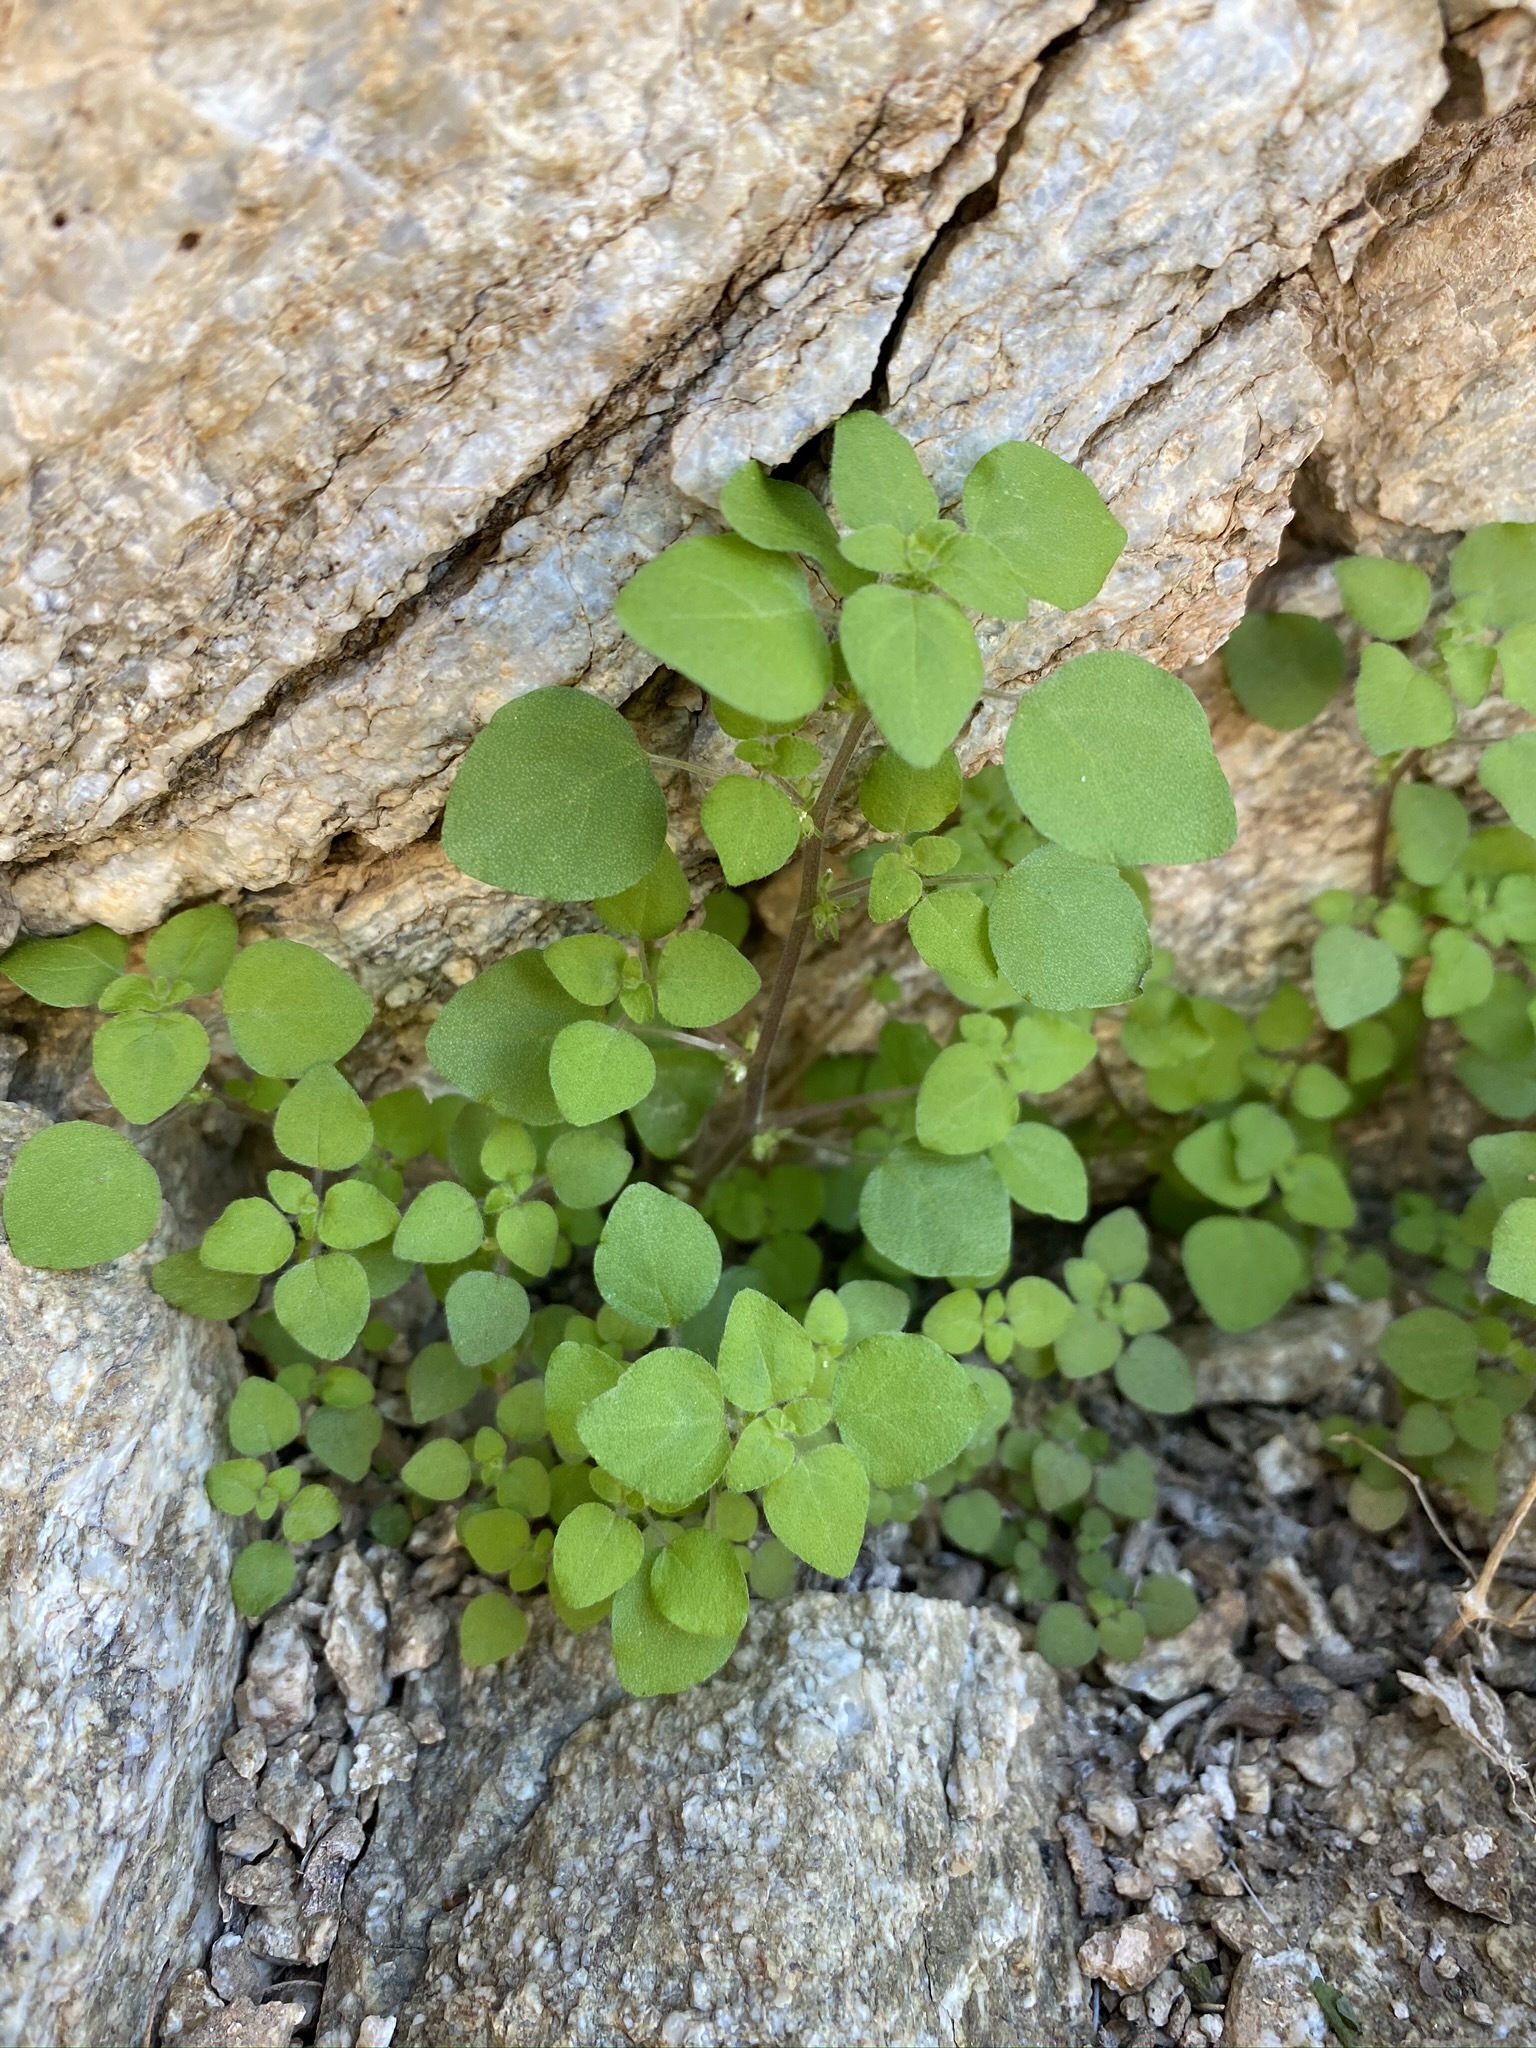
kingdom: Plantae
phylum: Tracheophyta
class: Magnoliopsida
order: Rosales
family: Urticaceae
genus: Parietaria
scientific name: Parietaria hespera
